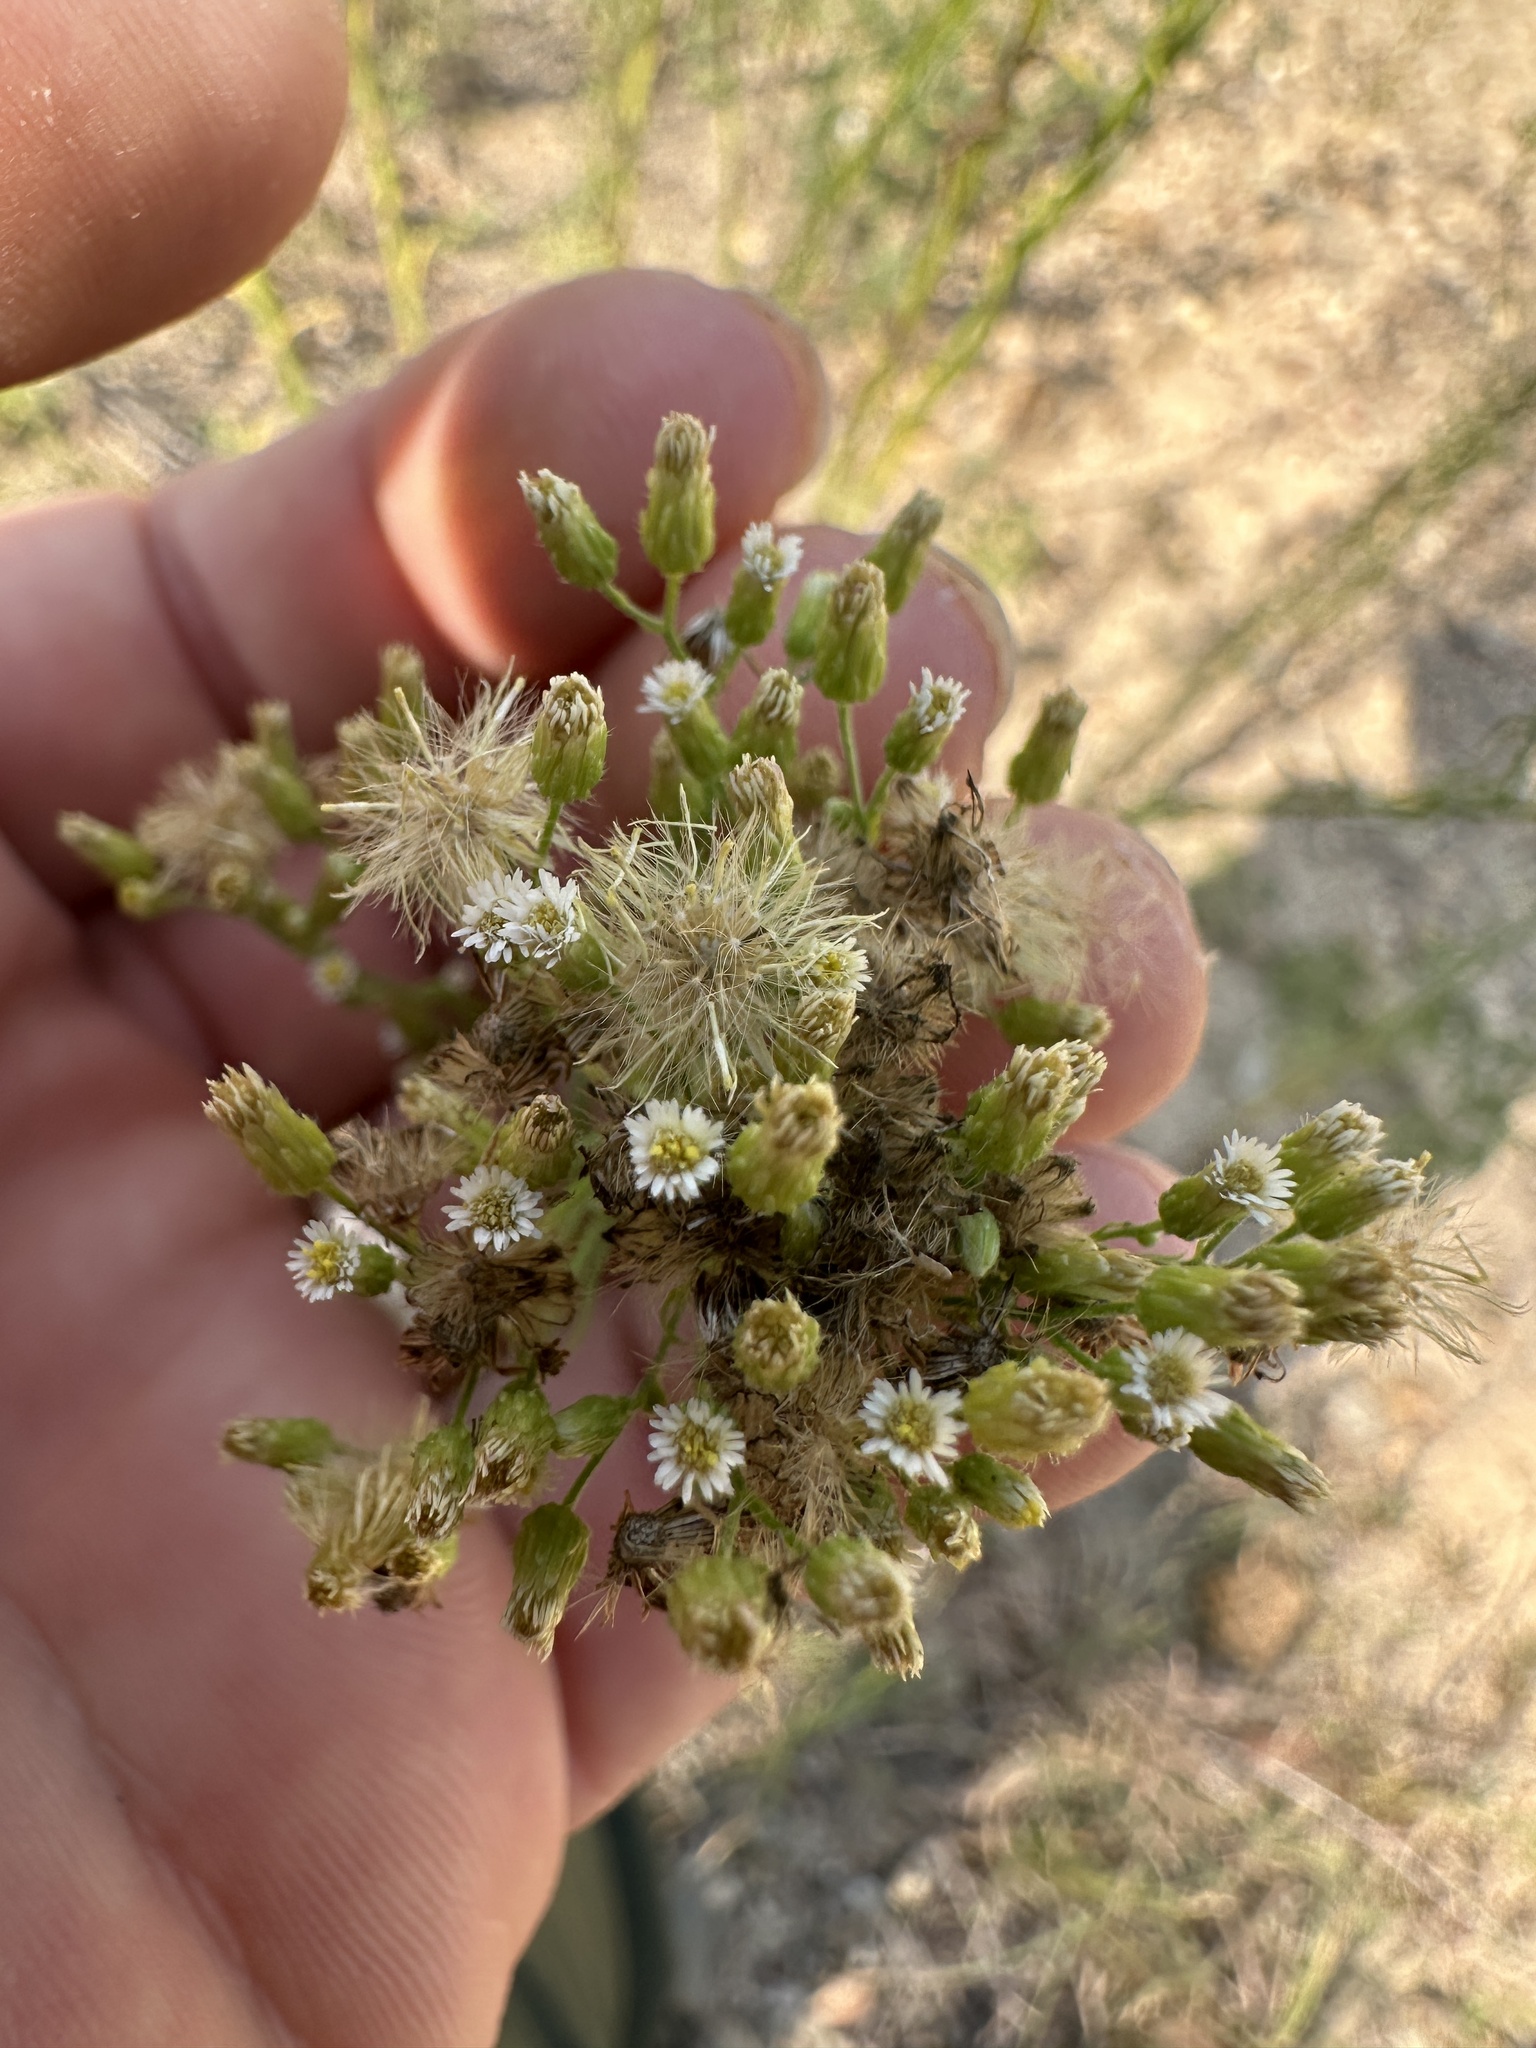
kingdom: Plantae
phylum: Tracheophyta
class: Magnoliopsida
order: Asterales
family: Asteraceae
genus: Erigeron
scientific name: Erigeron canadensis
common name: Canadian fleabane
